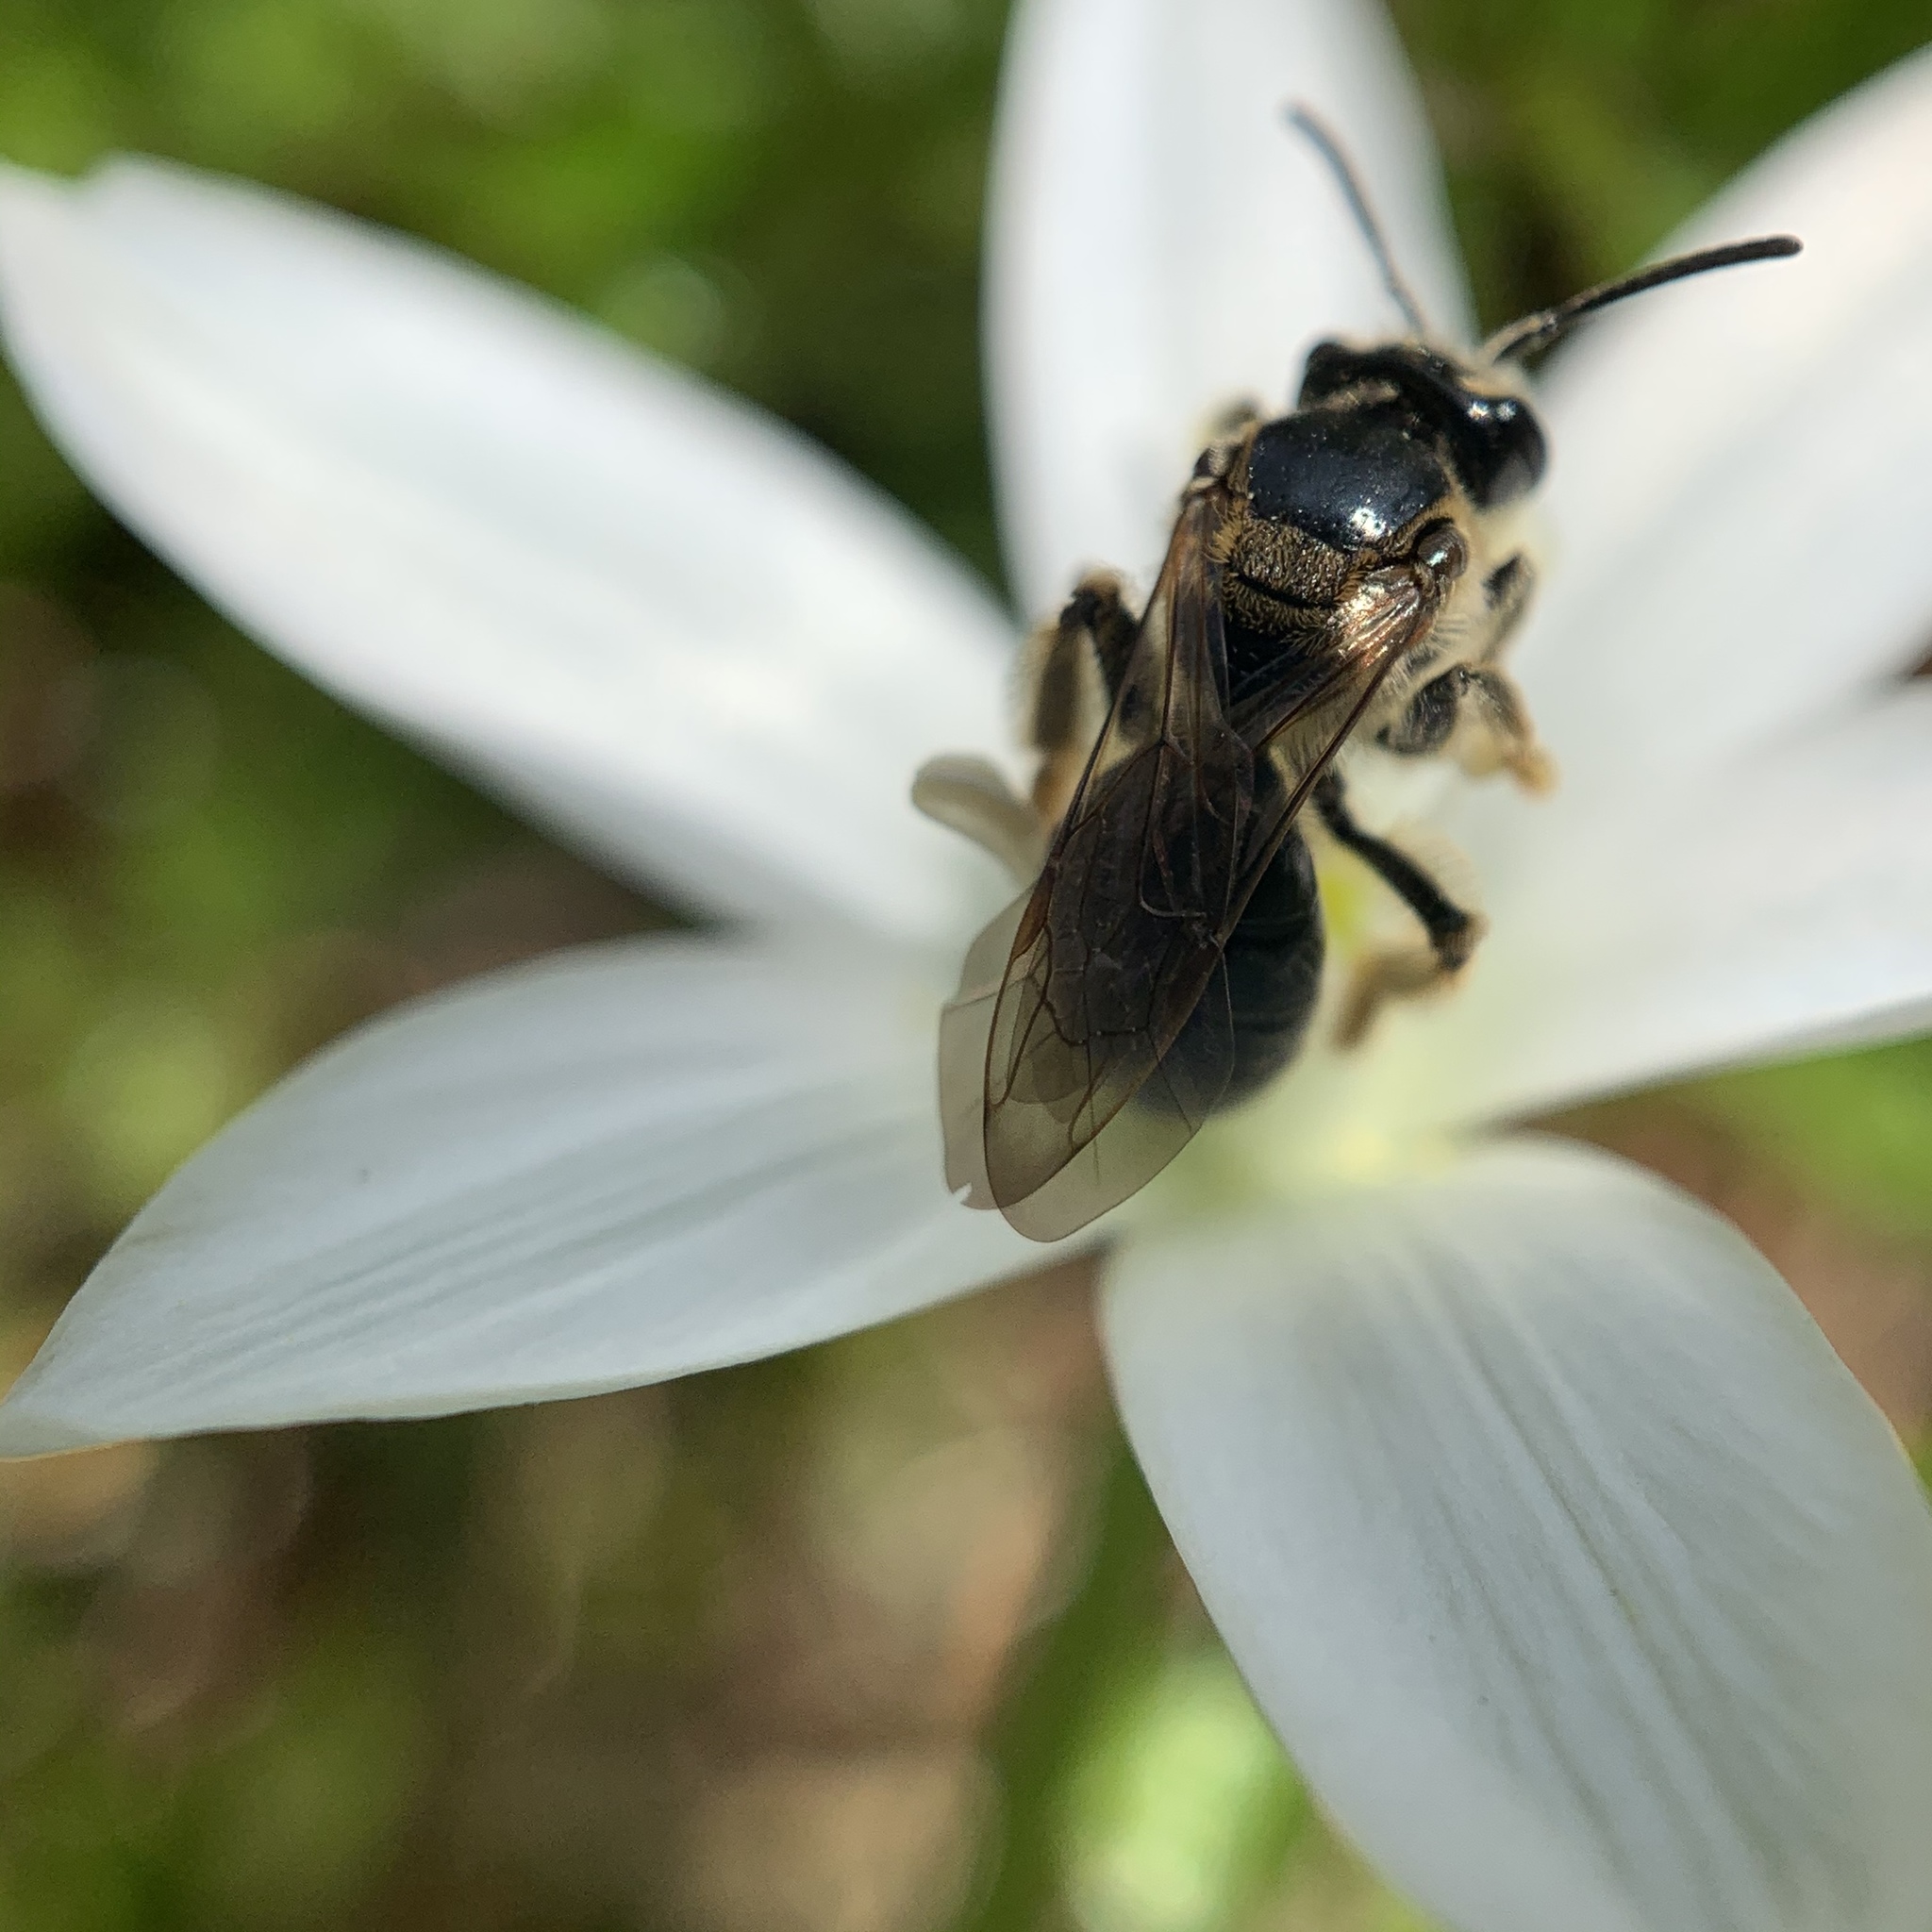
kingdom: Animalia
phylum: Arthropoda
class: Insecta
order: Hymenoptera
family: Andrenidae
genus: Andrena
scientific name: Andrena nuda
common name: Nude mining bee
